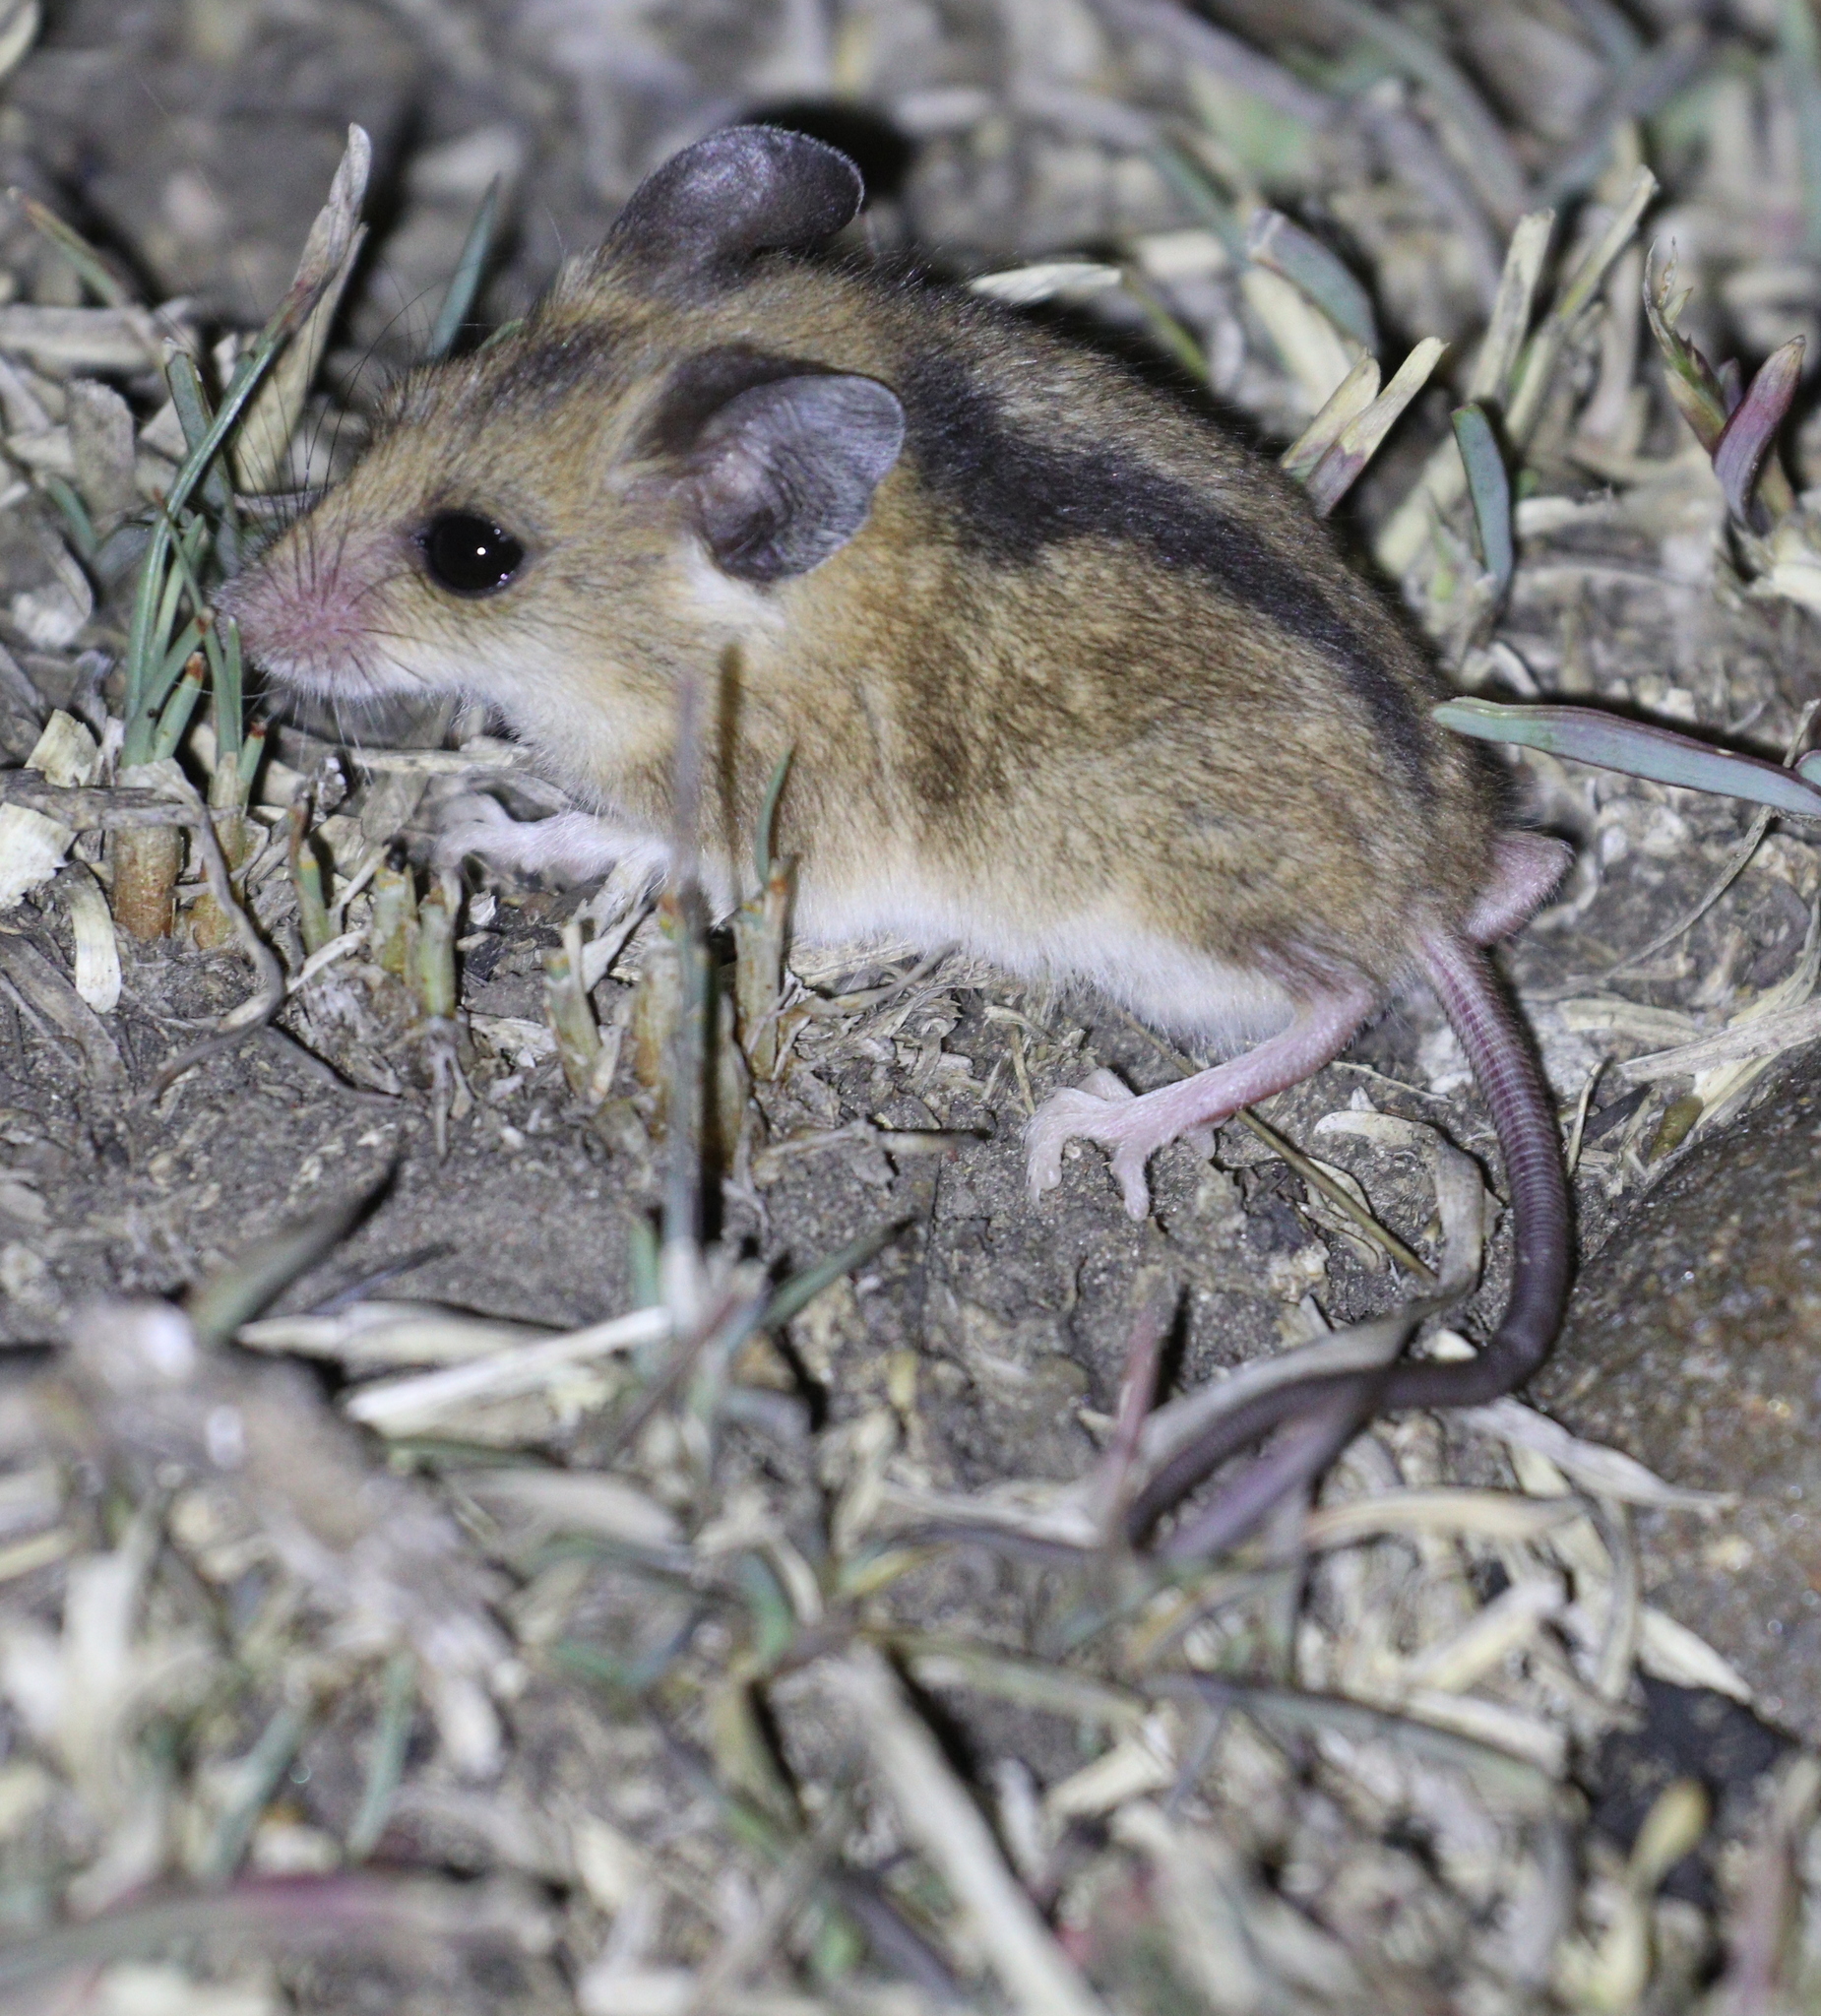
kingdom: Animalia
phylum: Chordata
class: Mammalia
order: Rodentia
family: Nesomyidae
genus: Dendromus
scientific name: Dendromus melanotis
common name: Gray african climbing mouse
